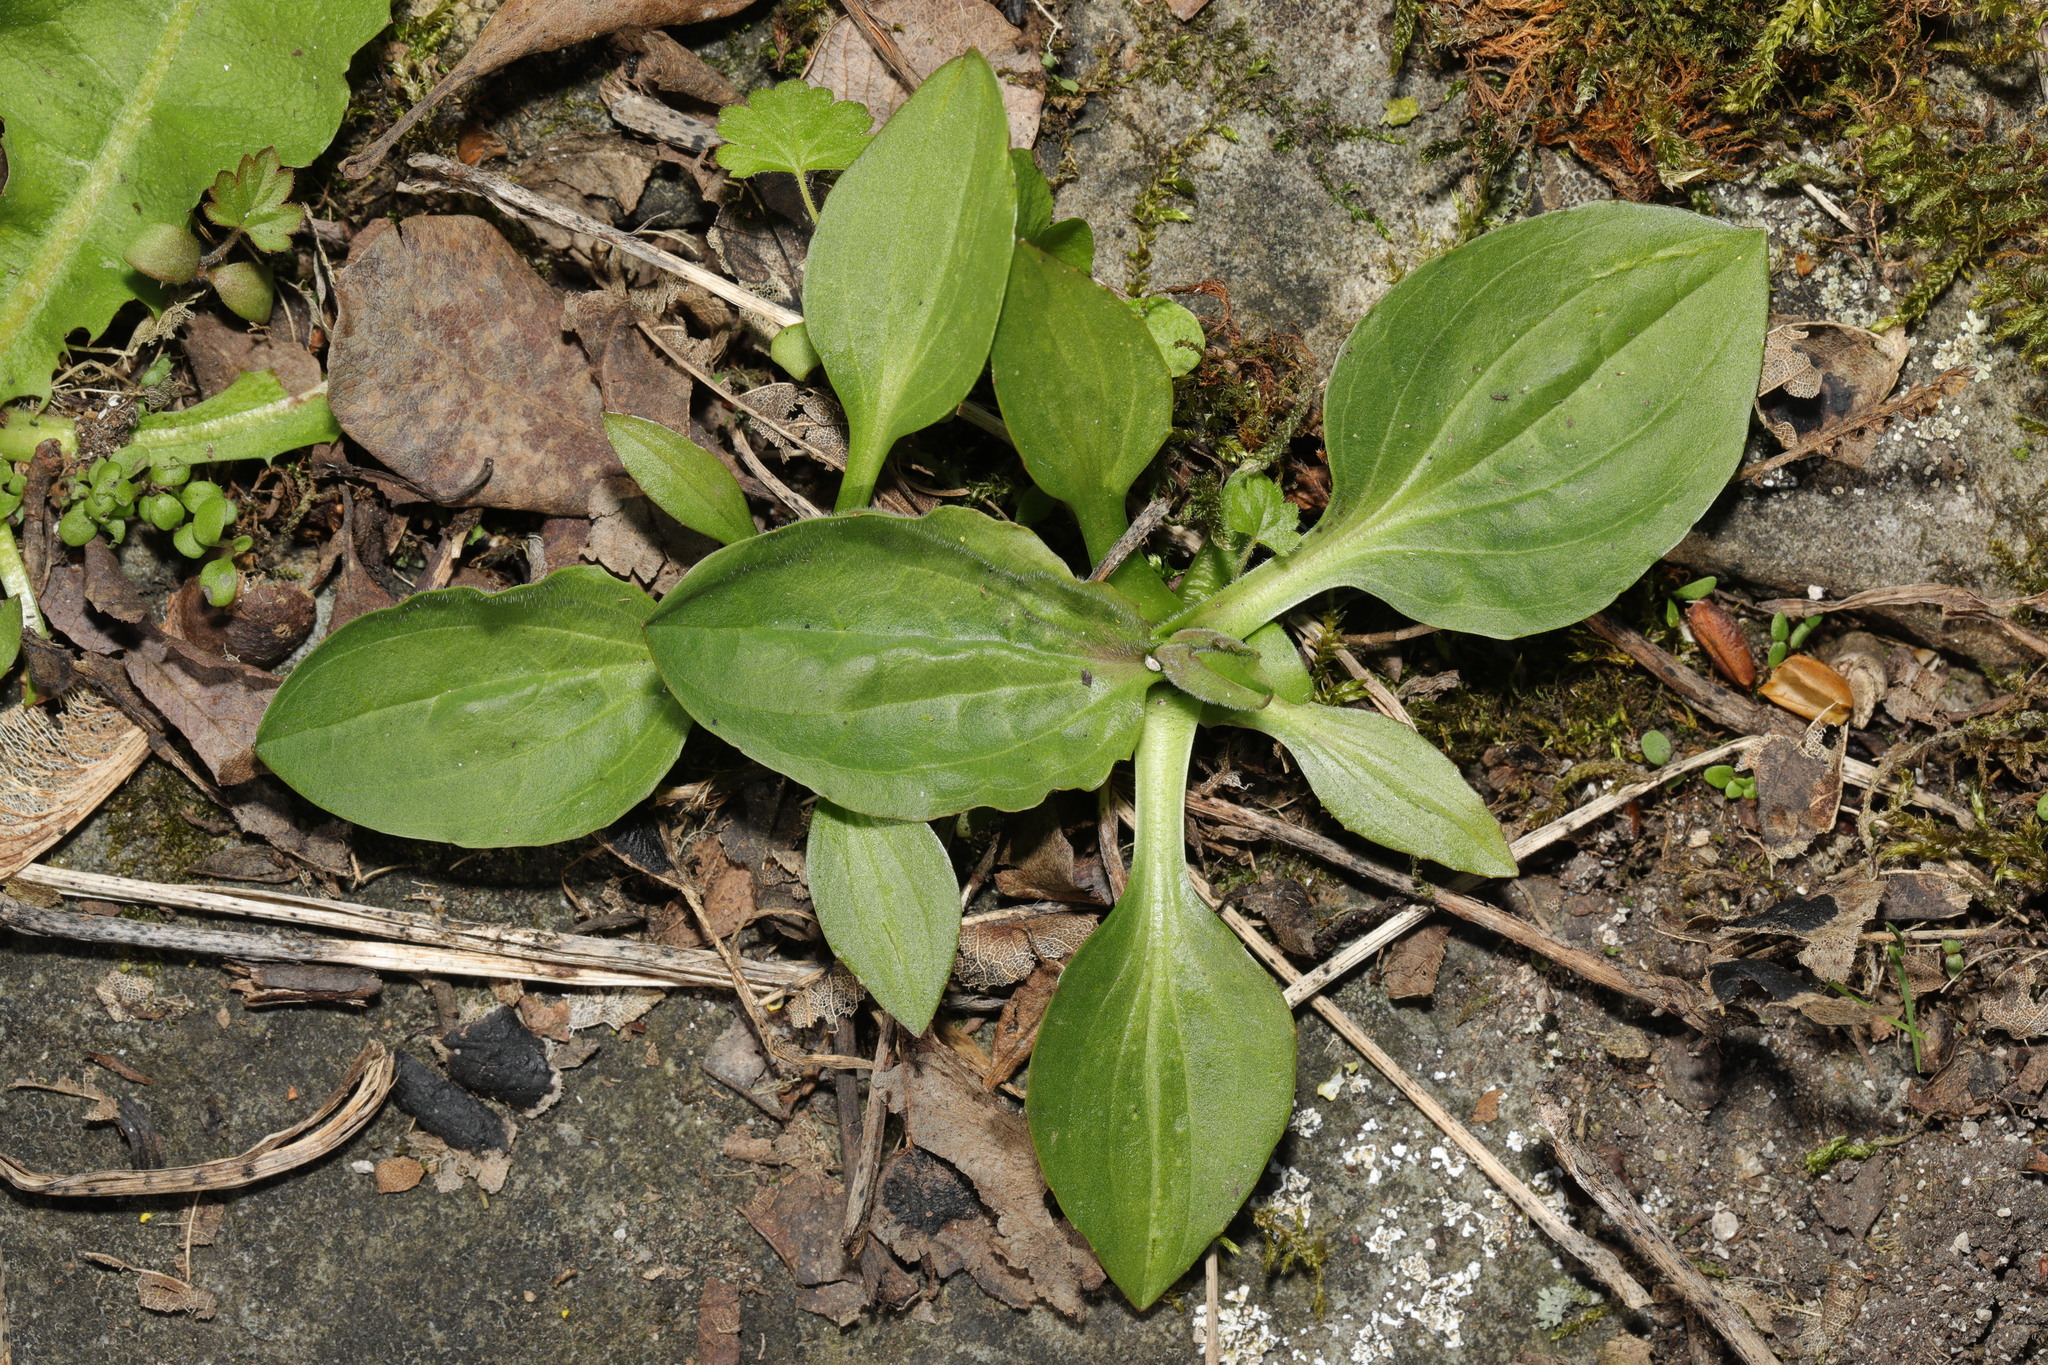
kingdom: Plantae
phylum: Tracheophyta
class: Magnoliopsida
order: Lamiales
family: Plantaginaceae
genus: Plantago
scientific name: Plantago major
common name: Common plantain
